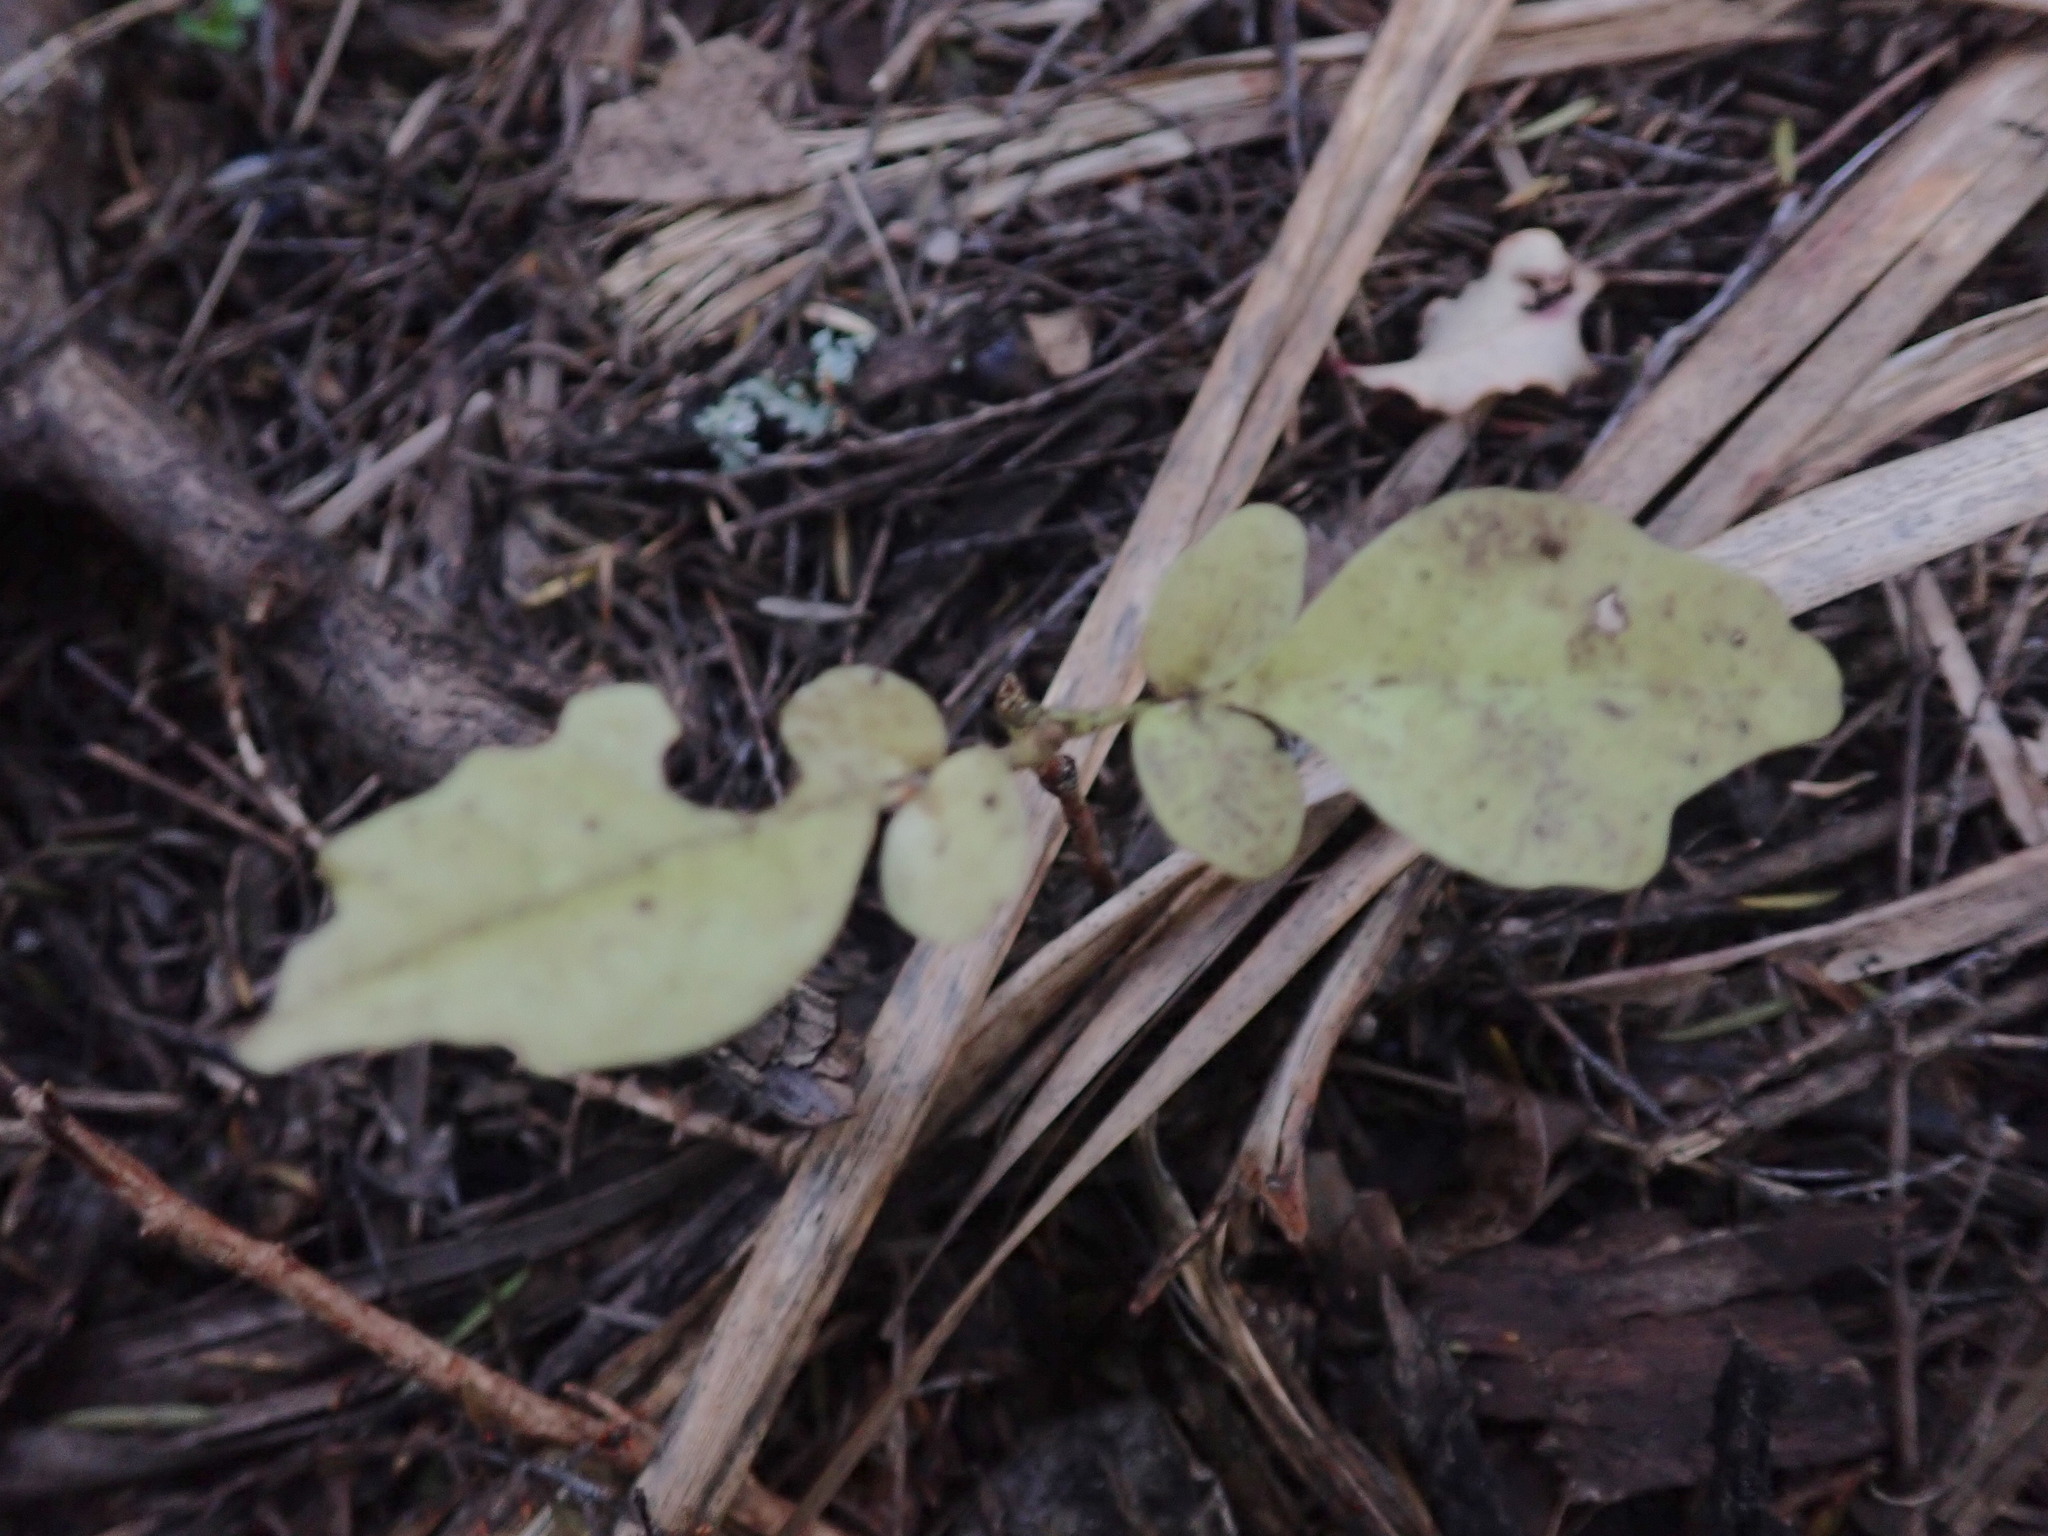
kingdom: Plantae
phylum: Tracheophyta
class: Magnoliopsida
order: Sapindales
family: Meliaceae
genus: Didymocheton
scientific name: Didymocheton spectabilis
